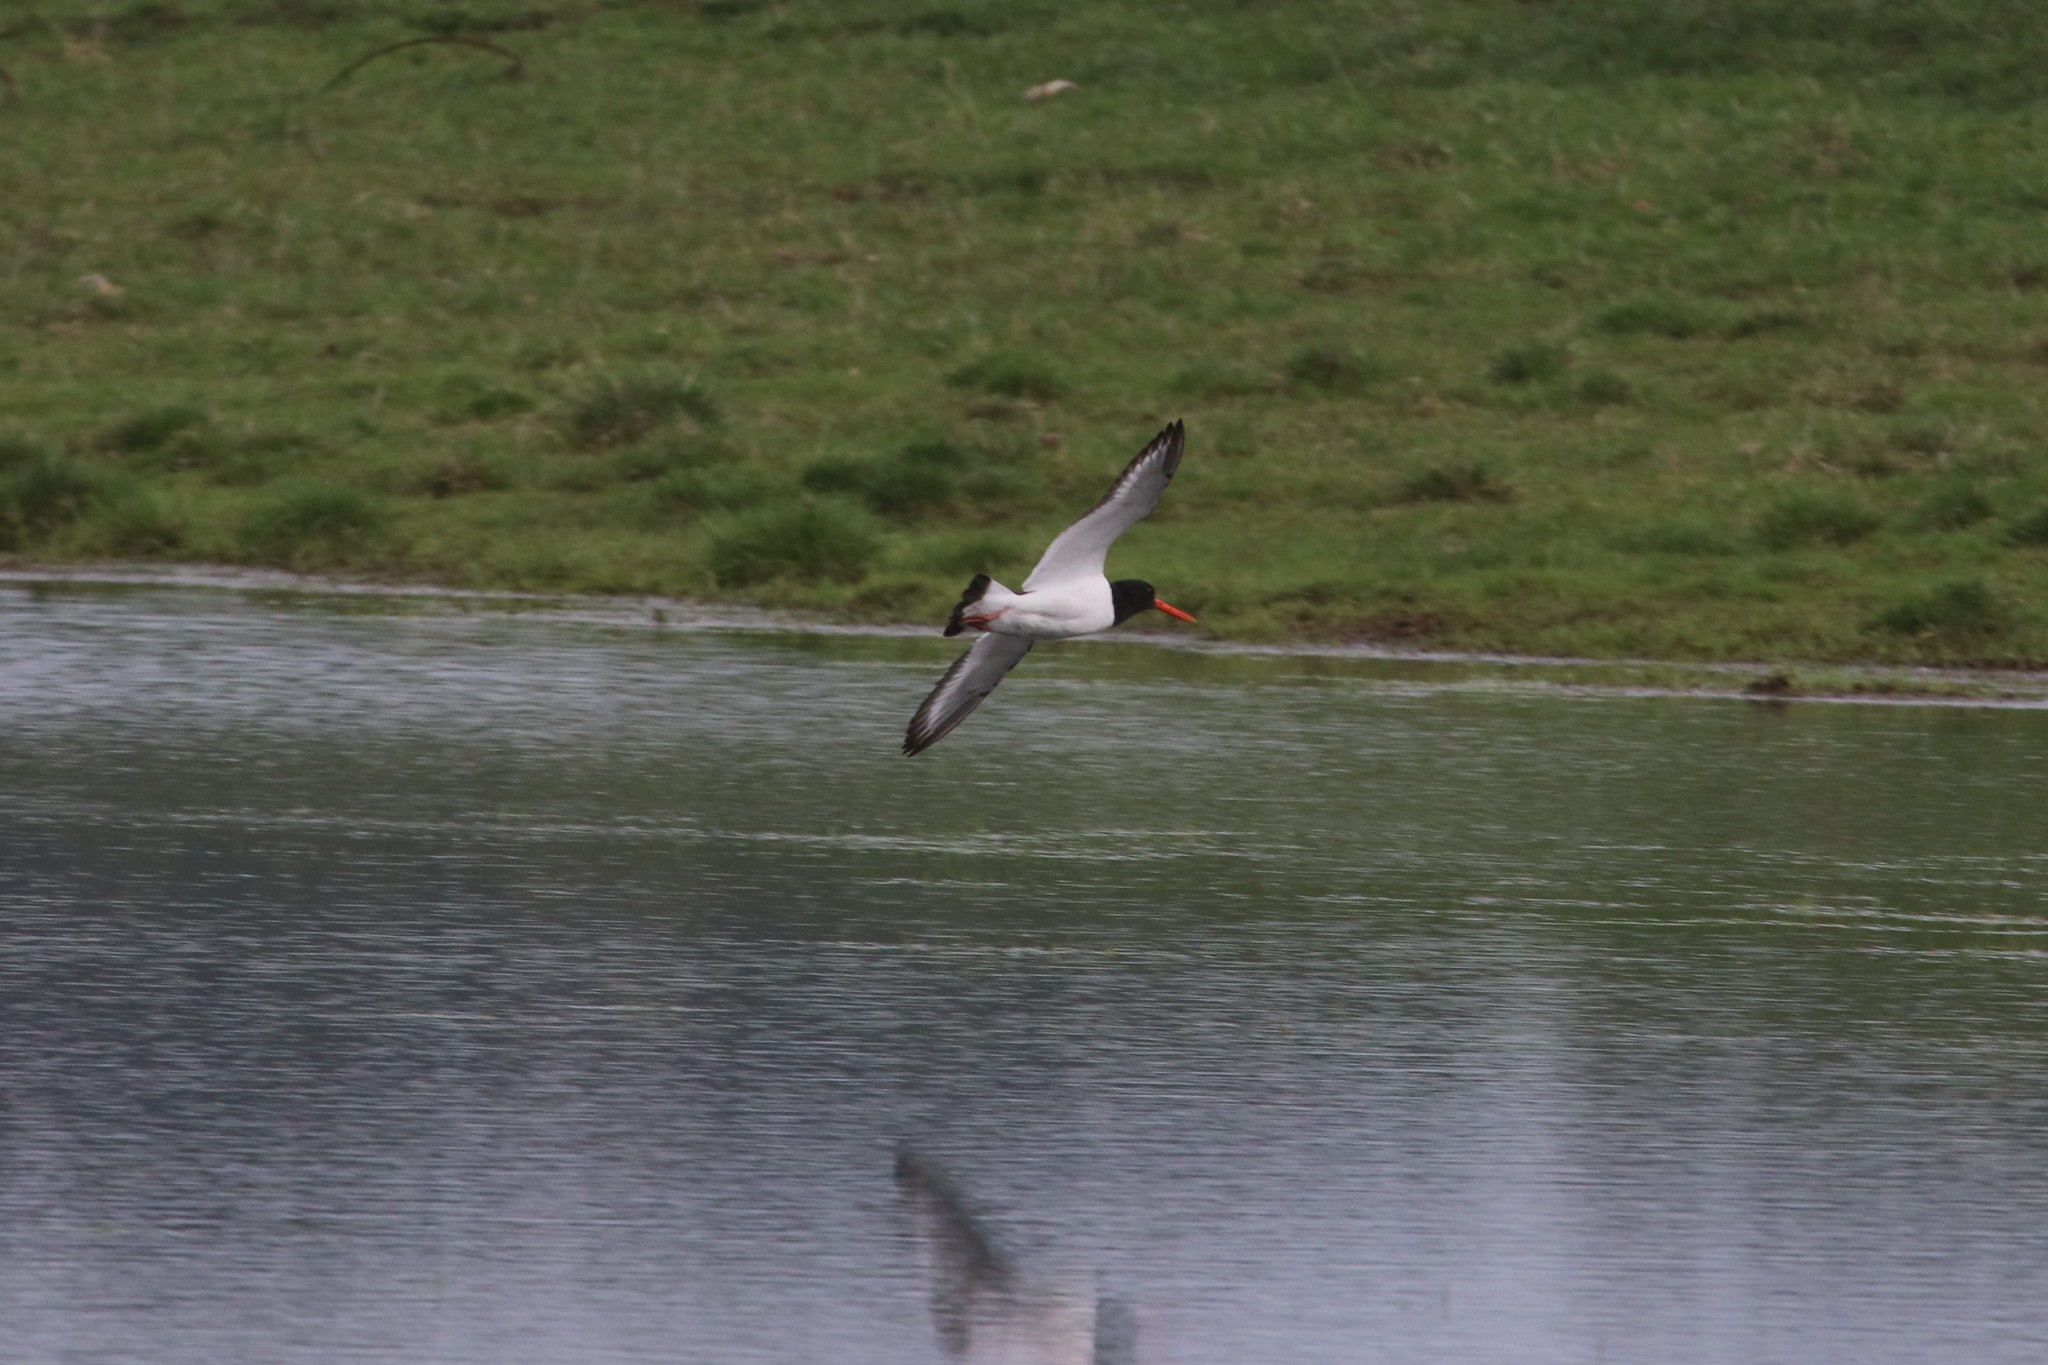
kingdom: Animalia
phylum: Chordata
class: Aves
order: Charadriiformes
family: Haematopodidae
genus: Haematopus
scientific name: Haematopus ostralegus
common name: Eurasian oystercatcher
